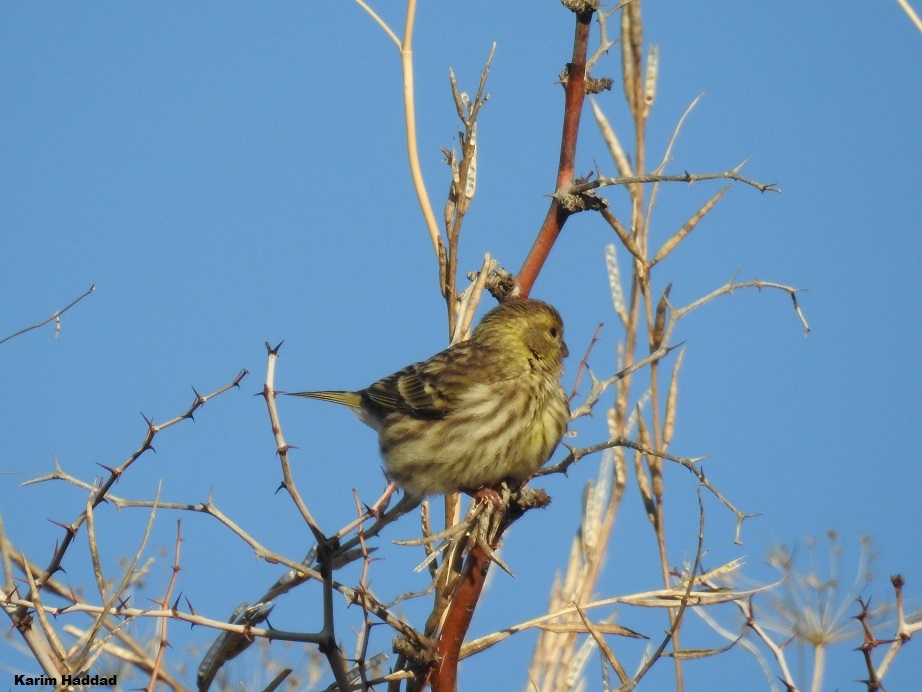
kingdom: Animalia
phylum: Chordata
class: Aves
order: Passeriformes
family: Fringillidae
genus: Serinus
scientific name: Serinus serinus
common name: European serin
